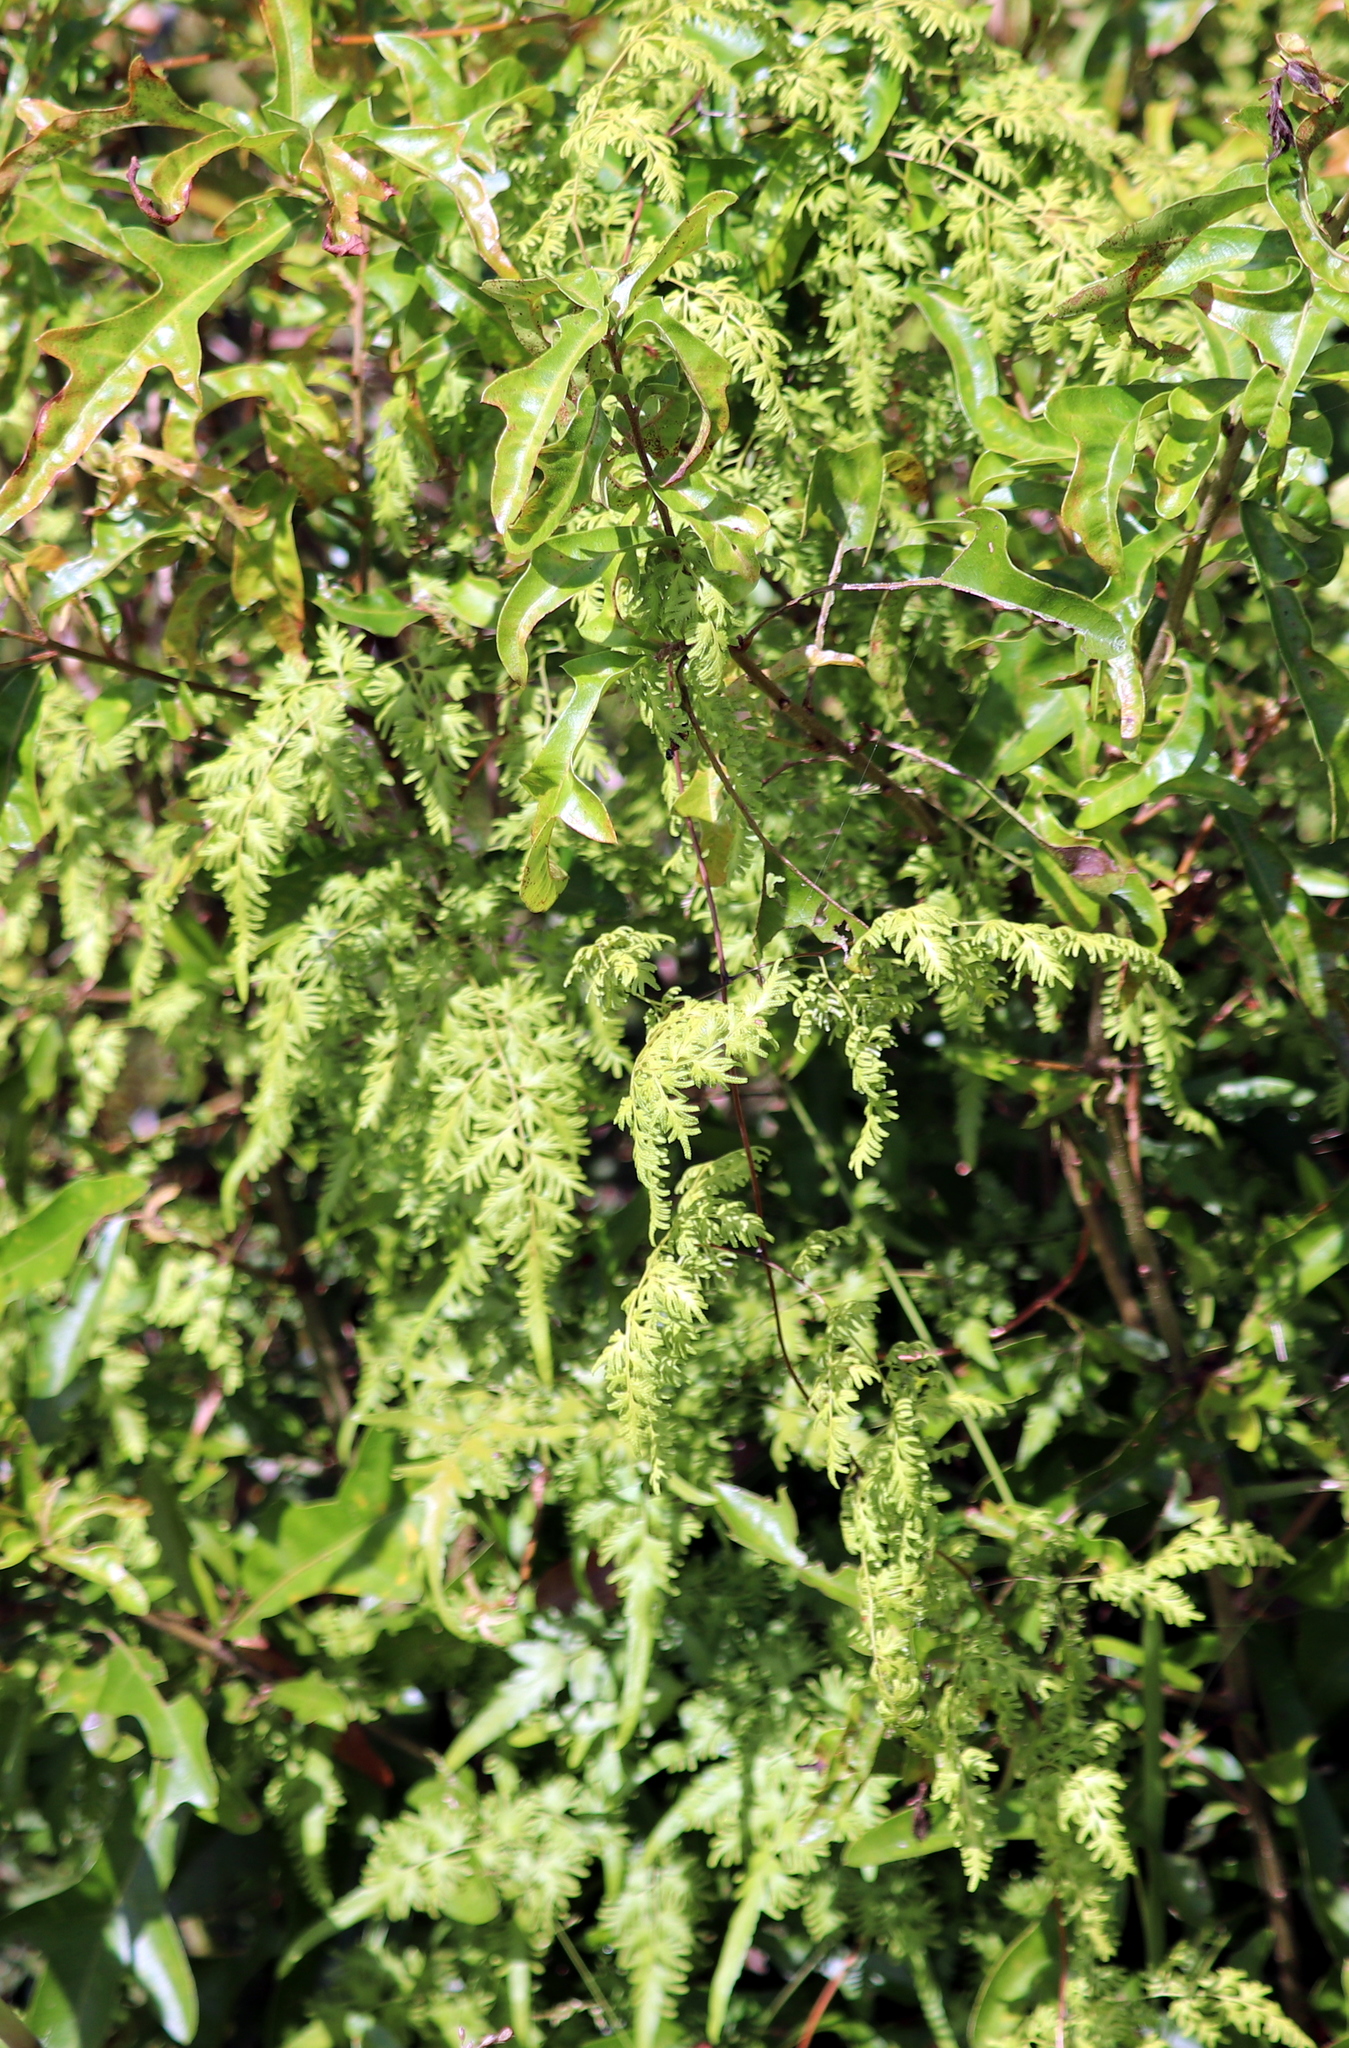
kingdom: Plantae
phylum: Tracheophyta
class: Polypodiopsida
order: Schizaeales
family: Lygodiaceae
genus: Lygodium
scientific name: Lygodium japonicum
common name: Japanese climbing fern
